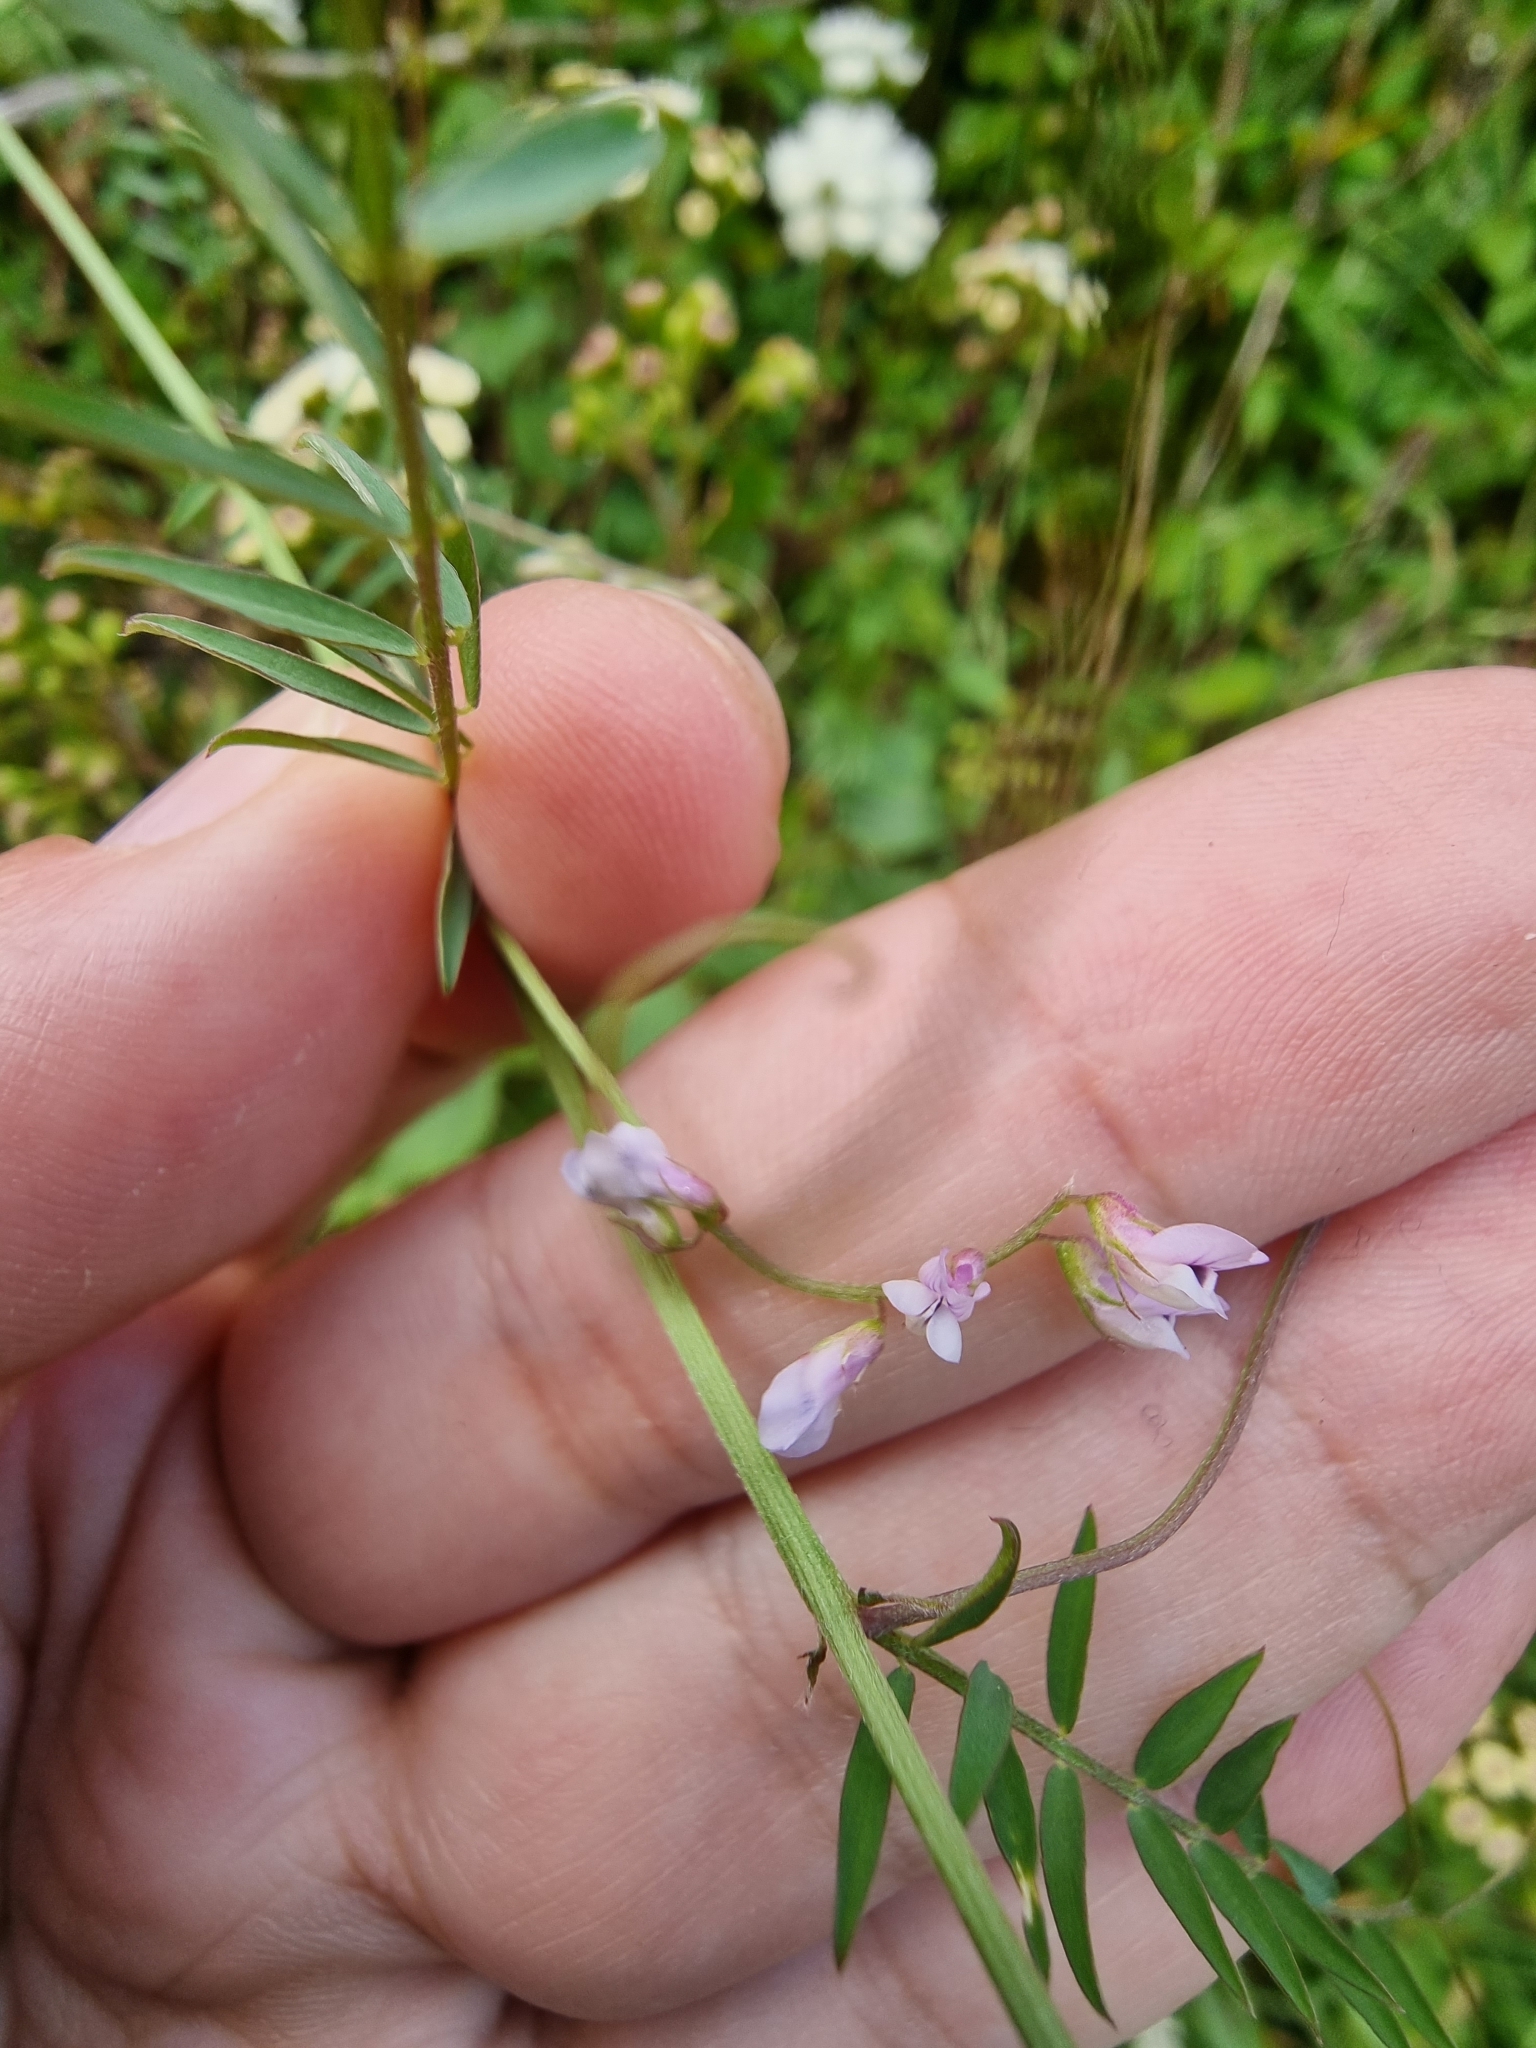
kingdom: Plantae
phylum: Tracheophyta
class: Magnoliopsida
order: Fabales
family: Fabaceae
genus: Vicia
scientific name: Vicia disperma
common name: European vetch
